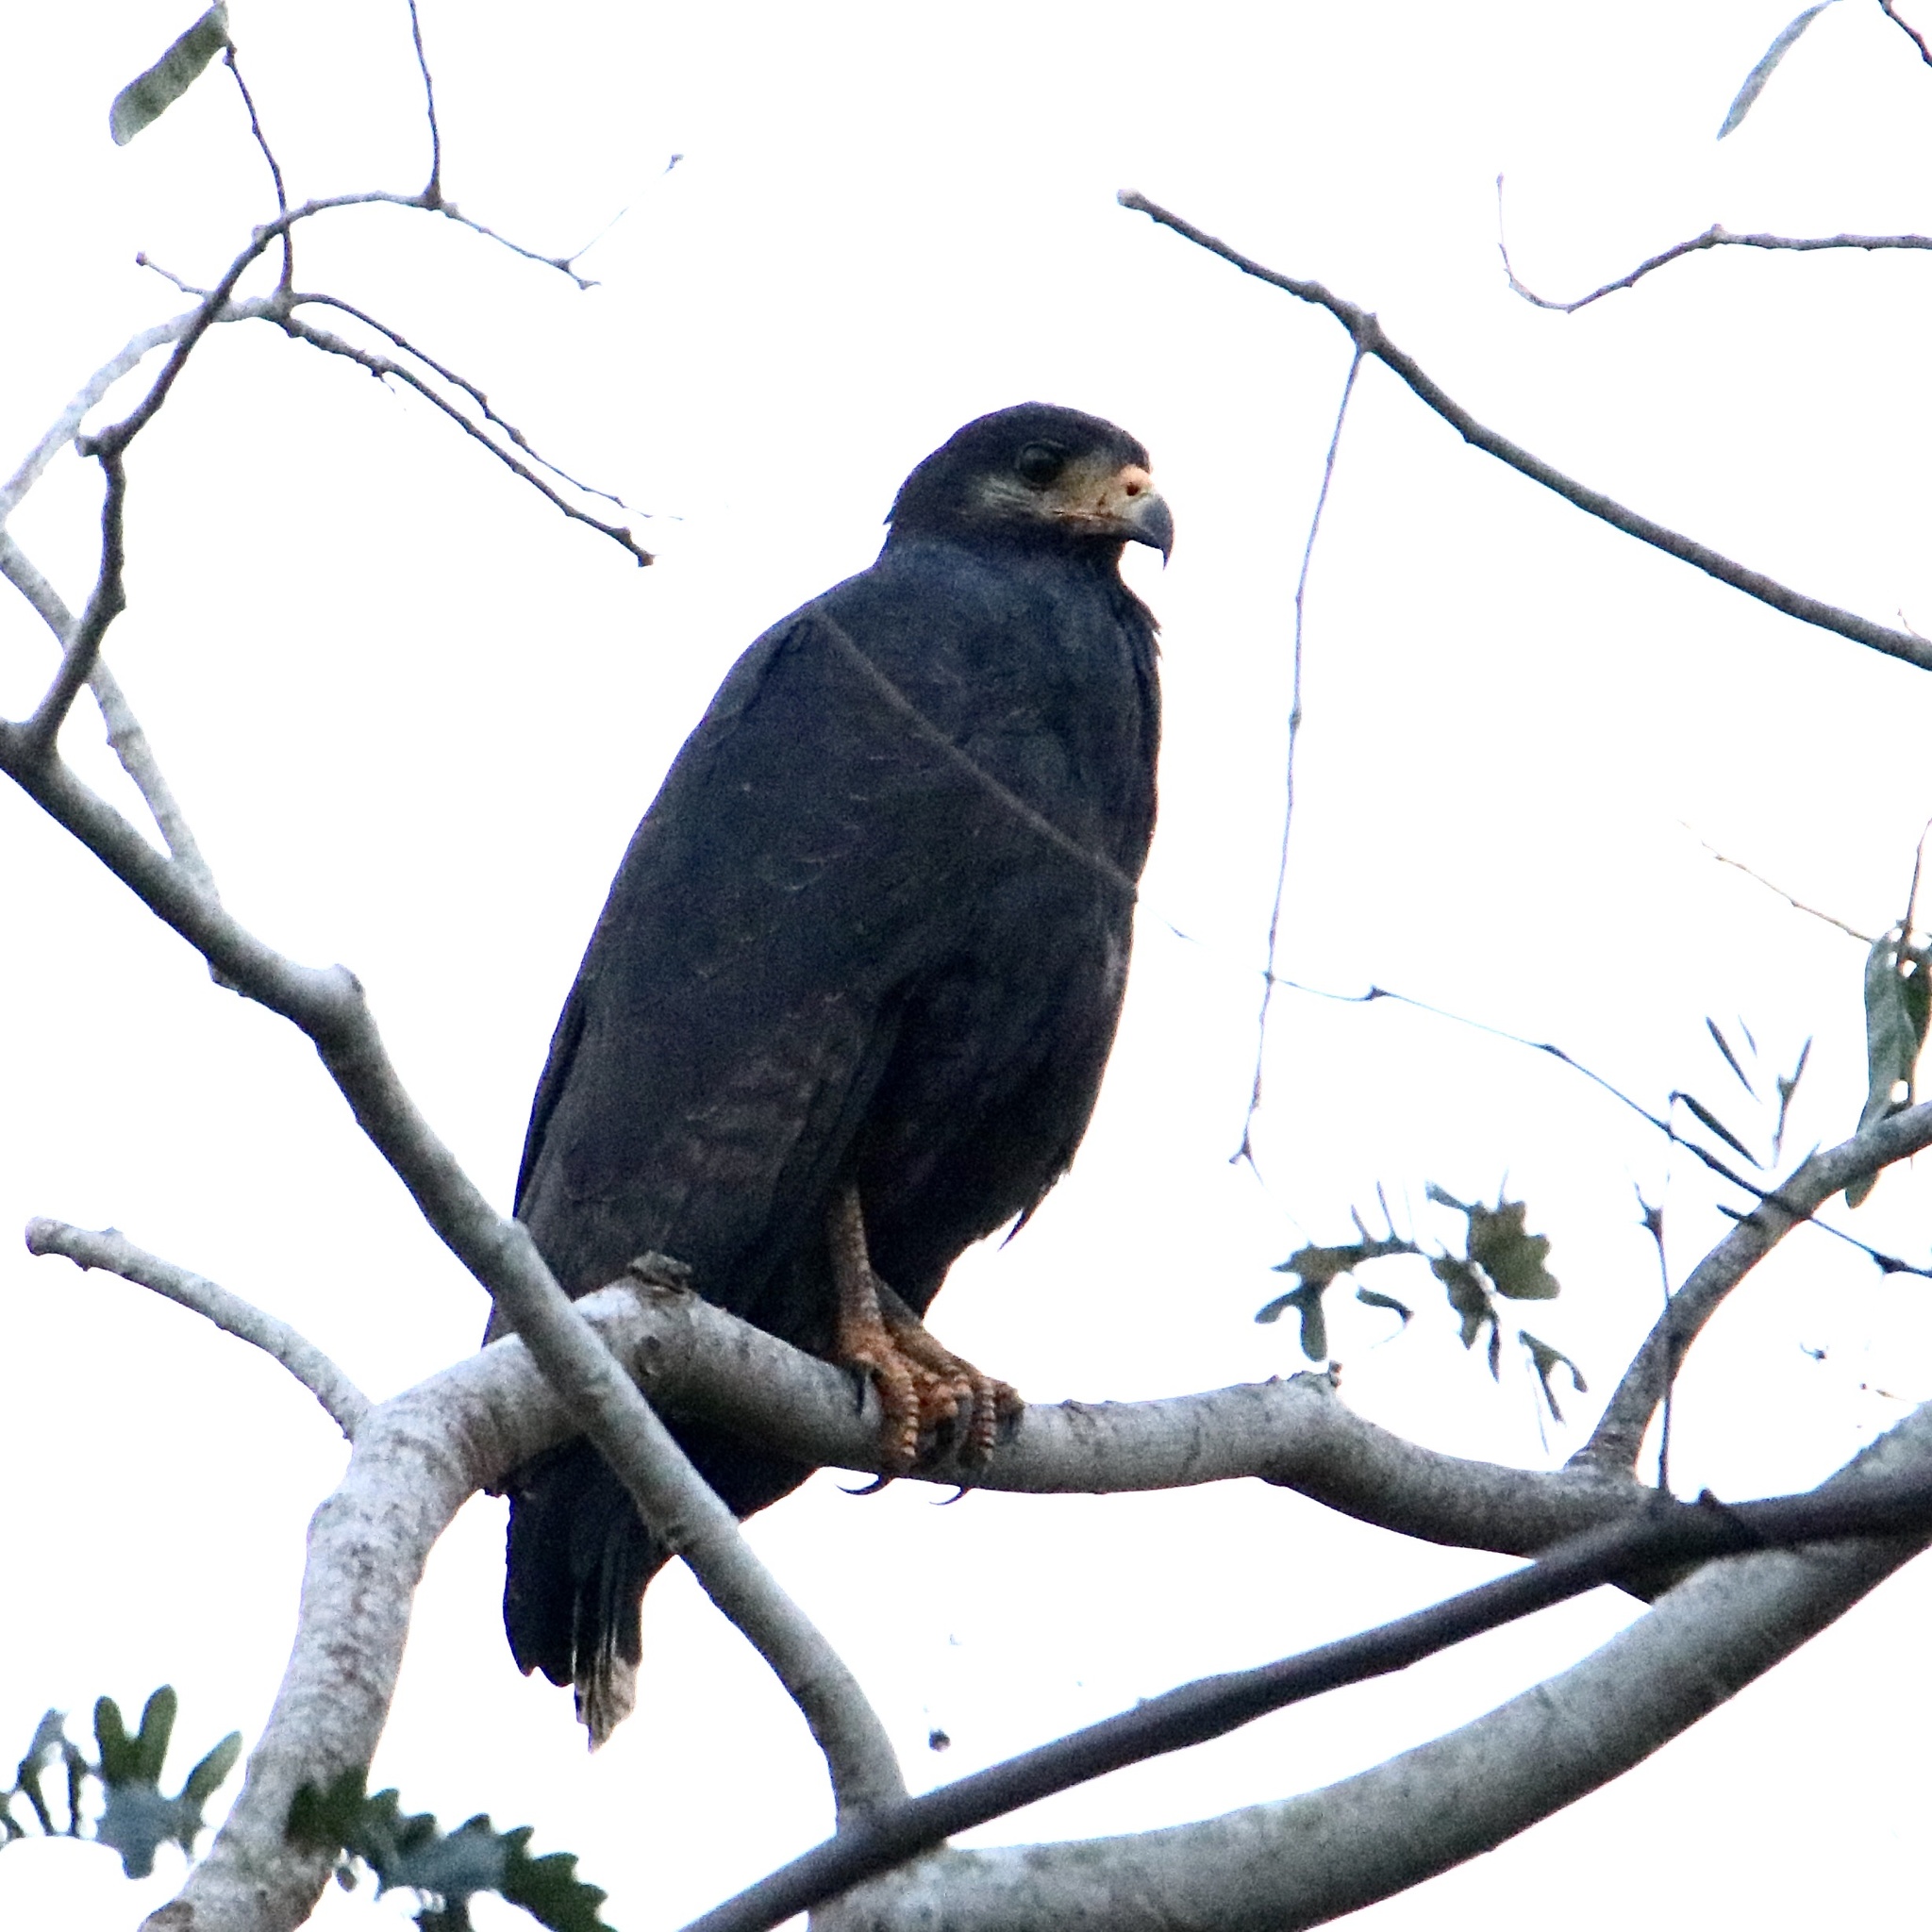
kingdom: Animalia
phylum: Chordata
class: Aves
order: Accipitriformes
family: Accipitridae
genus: Buteogallus
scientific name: Buteogallus anthracinus
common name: Common black hawk
